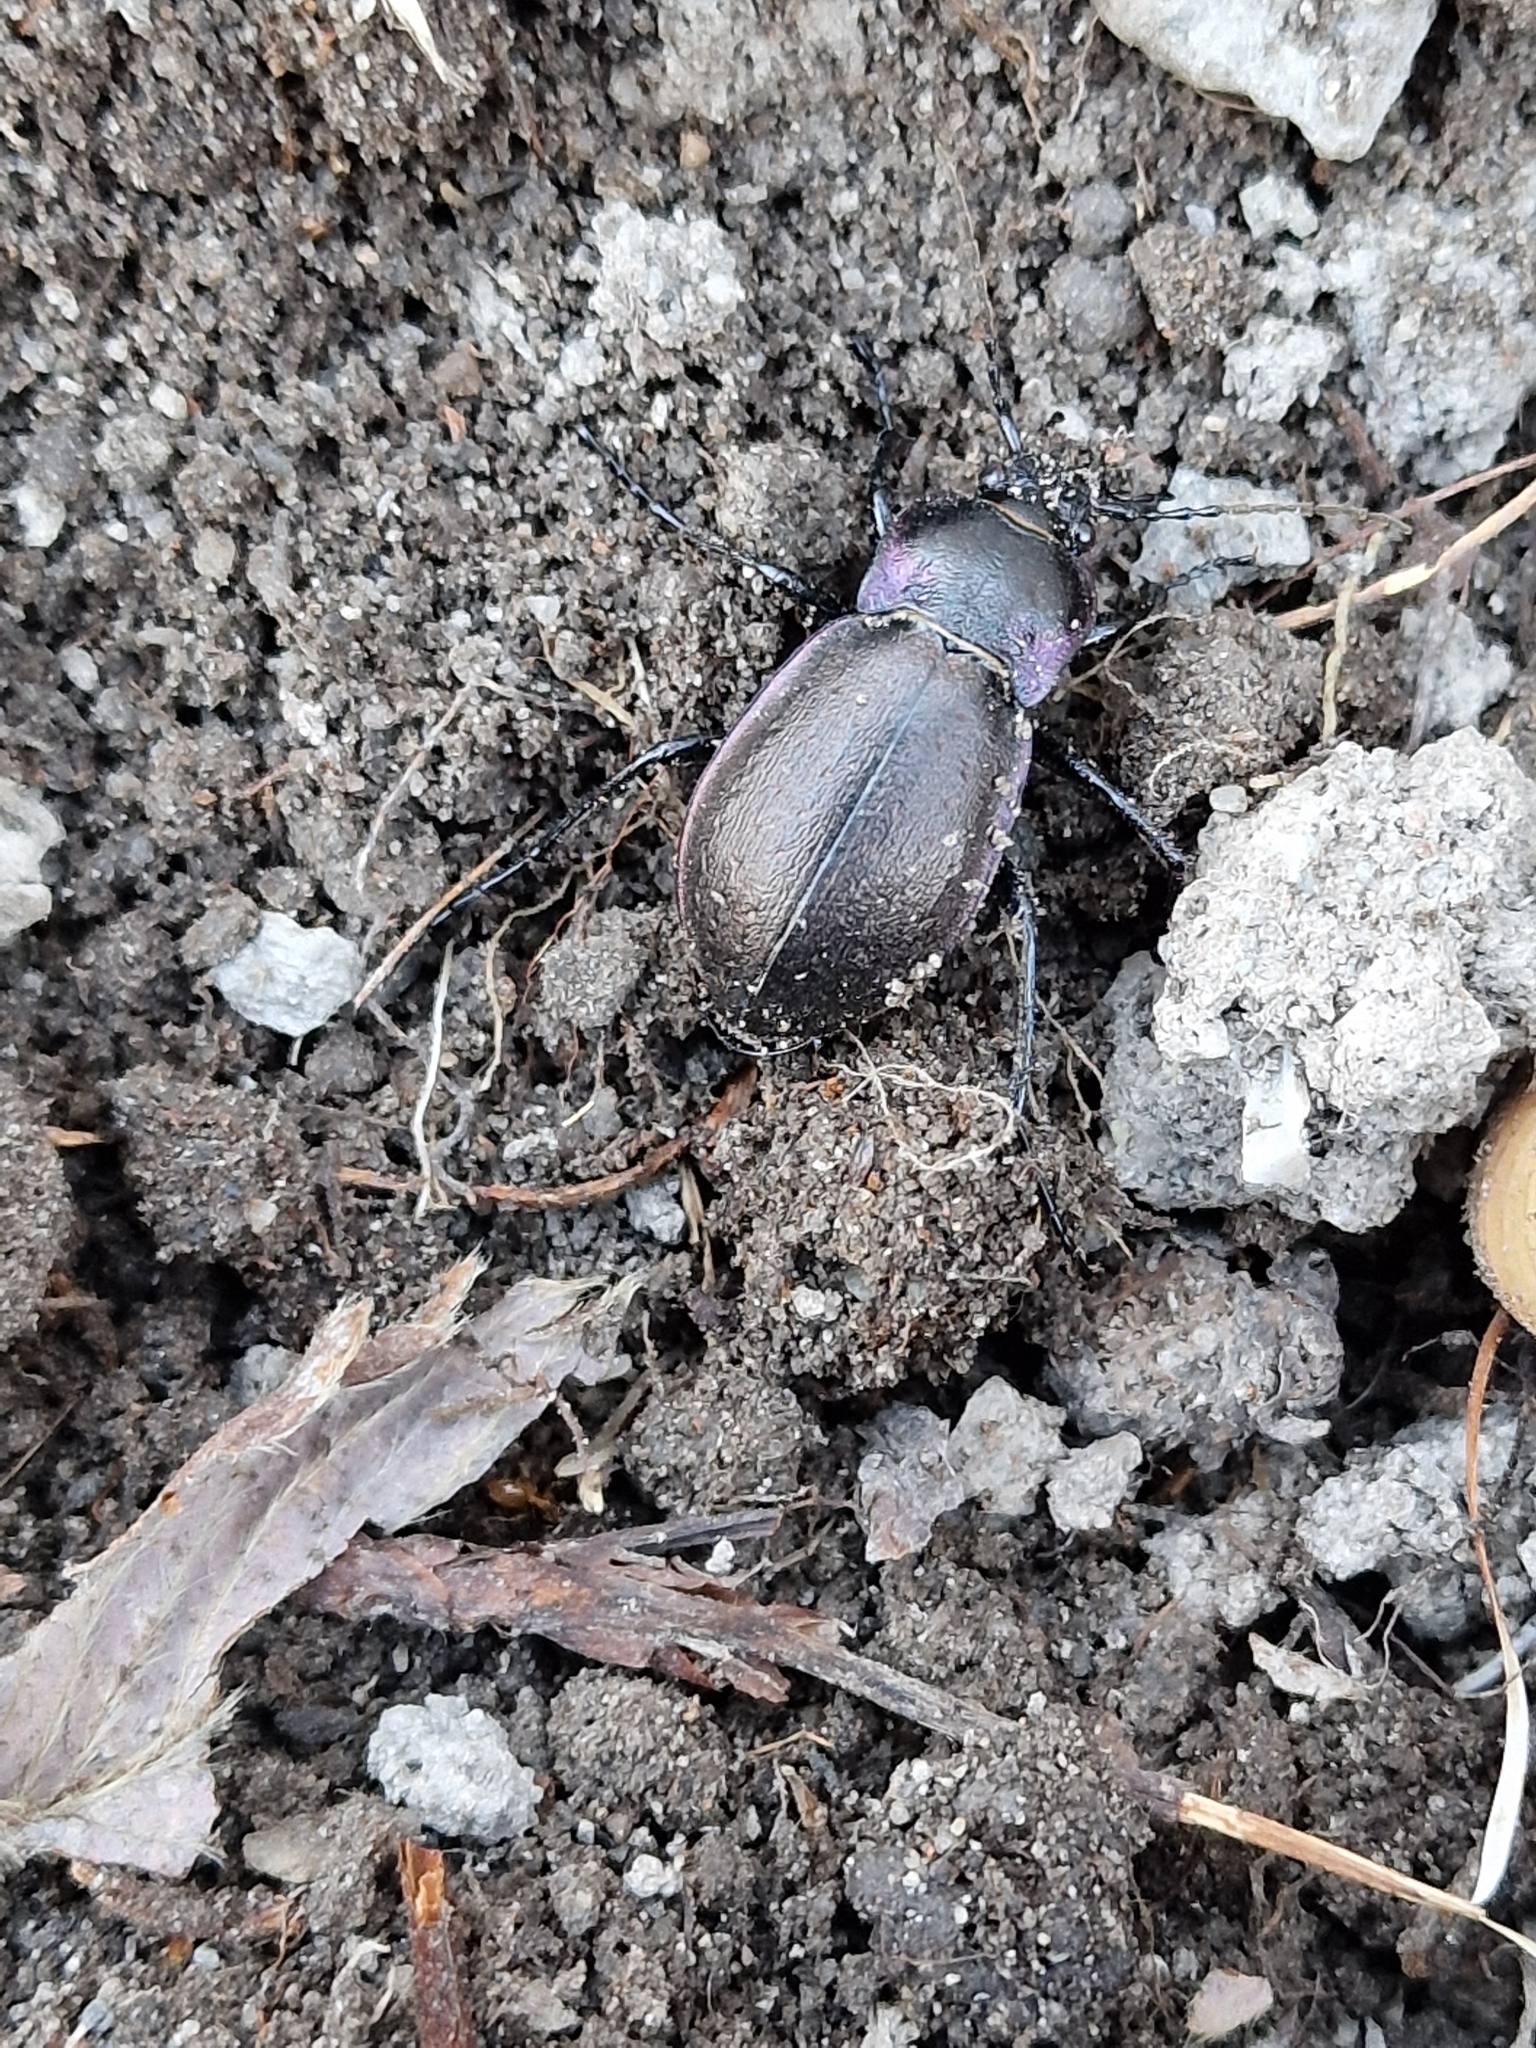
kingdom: Animalia
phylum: Arthropoda
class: Insecta
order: Coleoptera
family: Carabidae
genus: Carabus
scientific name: Carabus nemoralis
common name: European ground beetle
